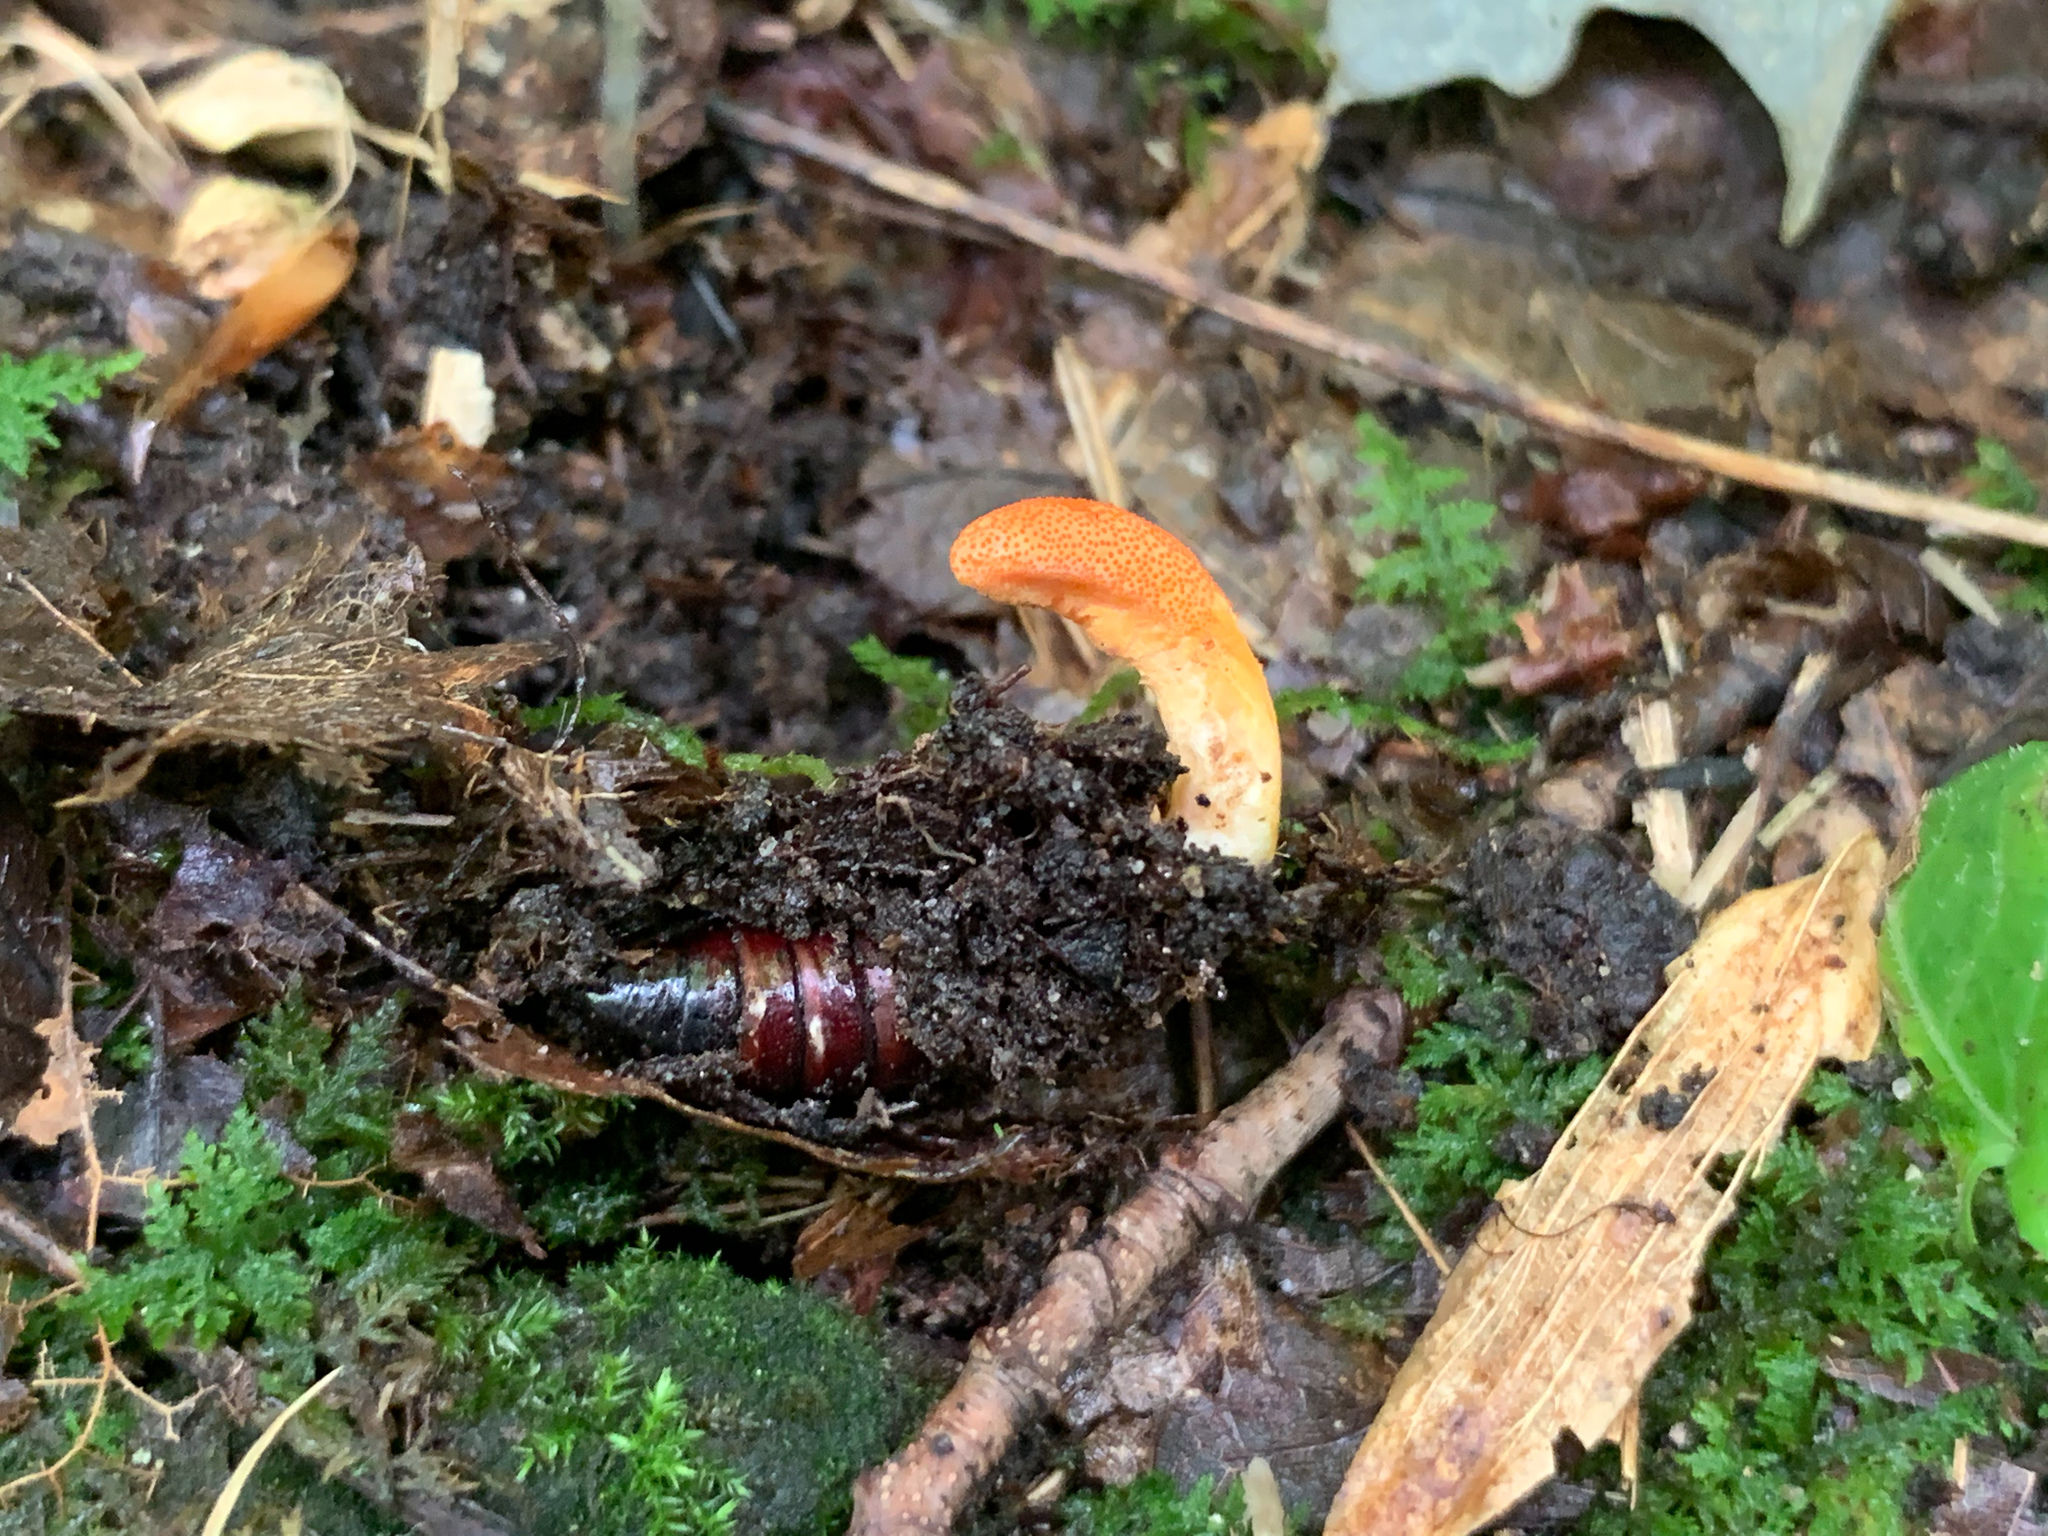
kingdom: Fungi
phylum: Ascomycota
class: Sordariomycetes
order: Hypocreales
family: Cordycipitaceae
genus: Cordyceps
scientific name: Cordyceps militaris
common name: Scarlet caterpillar fungus
